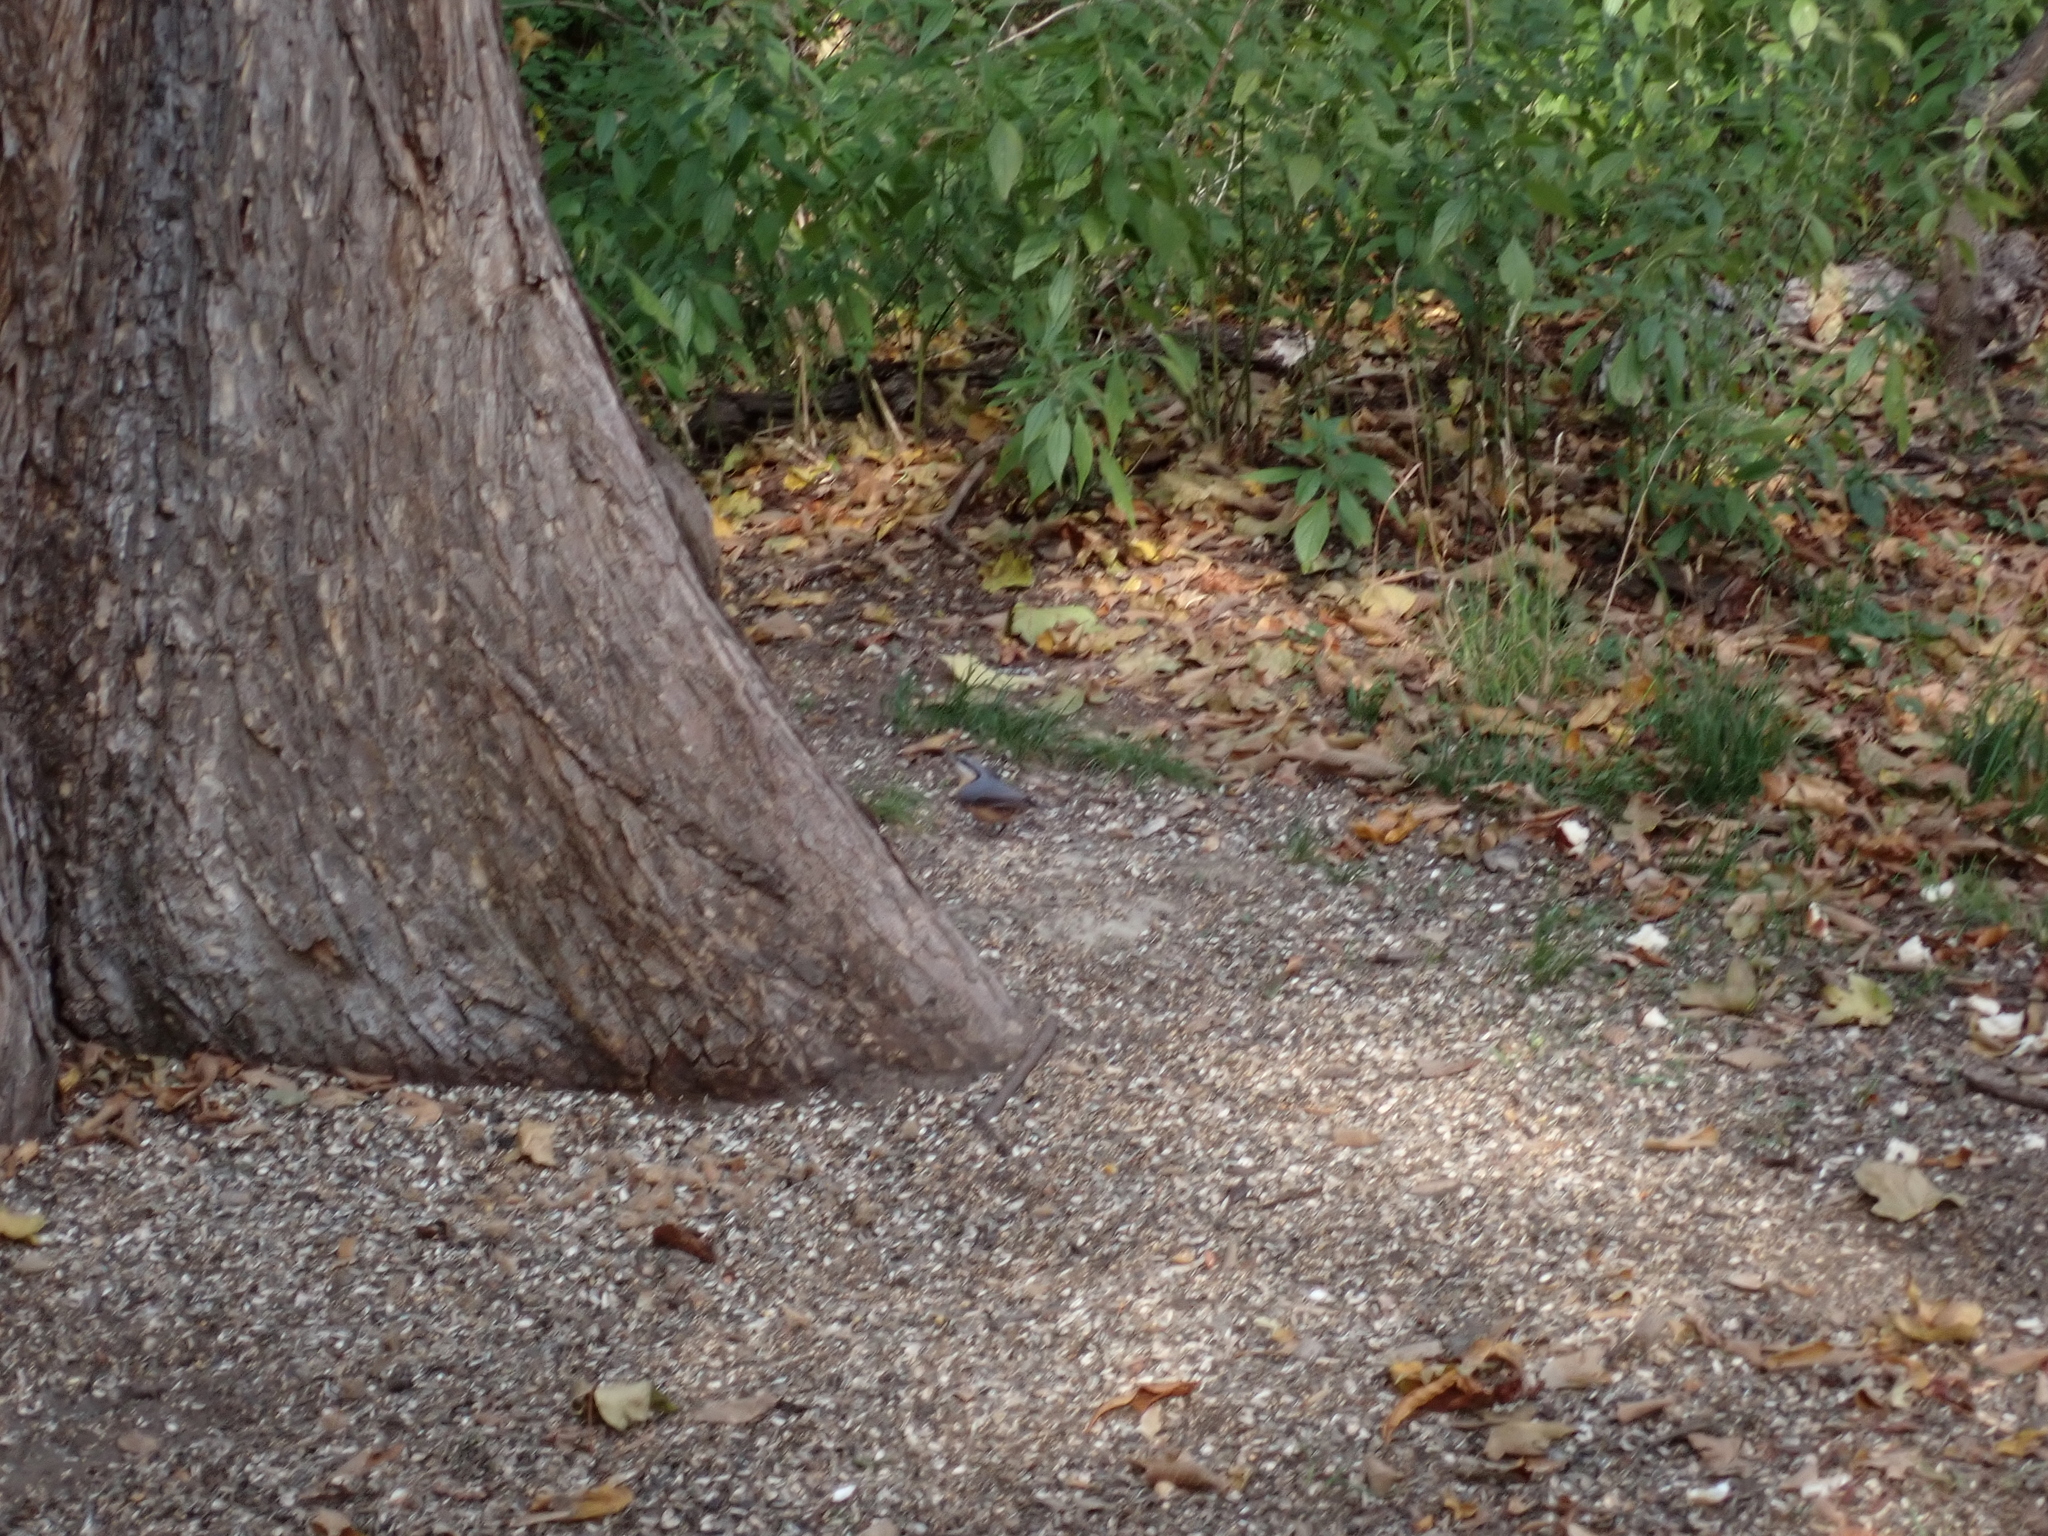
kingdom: Animalia
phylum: Chordata
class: Aves
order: Passeriformes
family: Sittidae
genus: Sitta
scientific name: Sitta europaea
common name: Eurasian nuthatch
